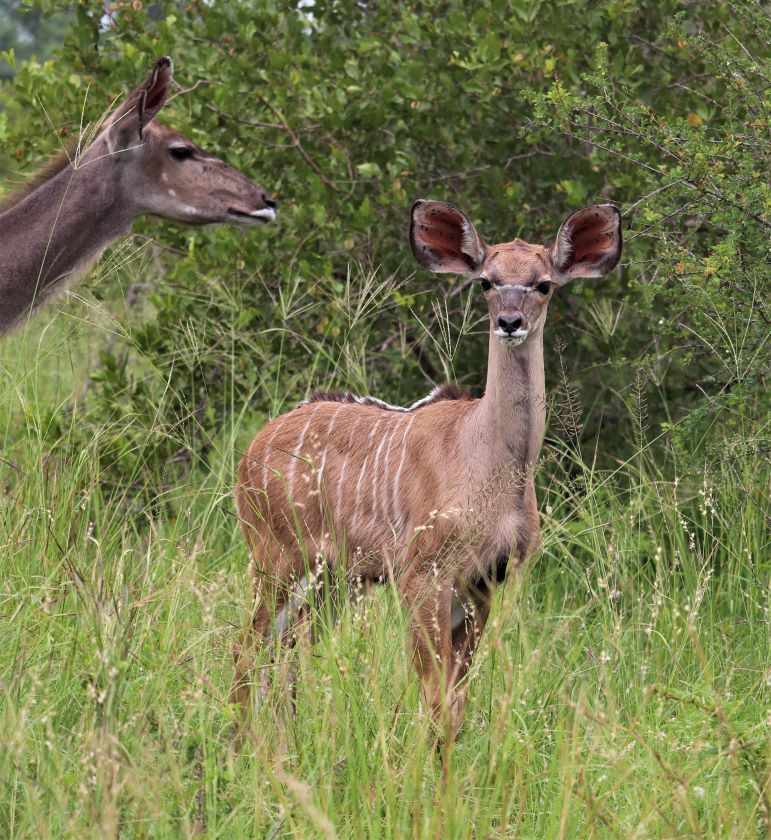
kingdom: Animalia
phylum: Chordata
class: Mammalia
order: Artiodactyla
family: Bovidae
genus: Tragelaphus
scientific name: Tragelaphus strepsiceros
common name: Greater kudu
